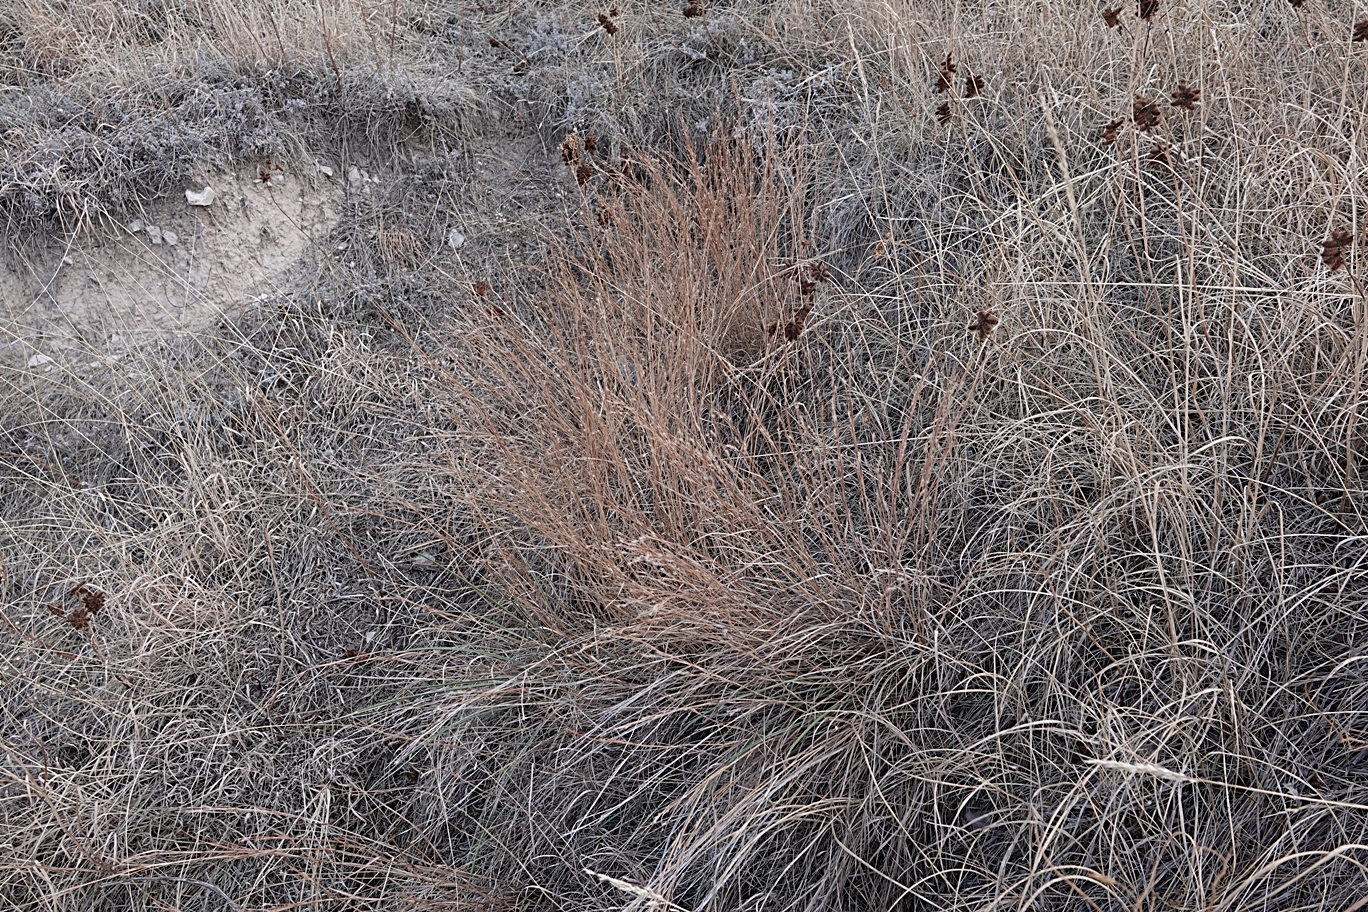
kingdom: Plantae
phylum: Tracheophyta
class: Liliopsida
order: Poales
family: Poaceae
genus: Schizachyrium
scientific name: Schizachyrium scoparium
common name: Little bluestem
